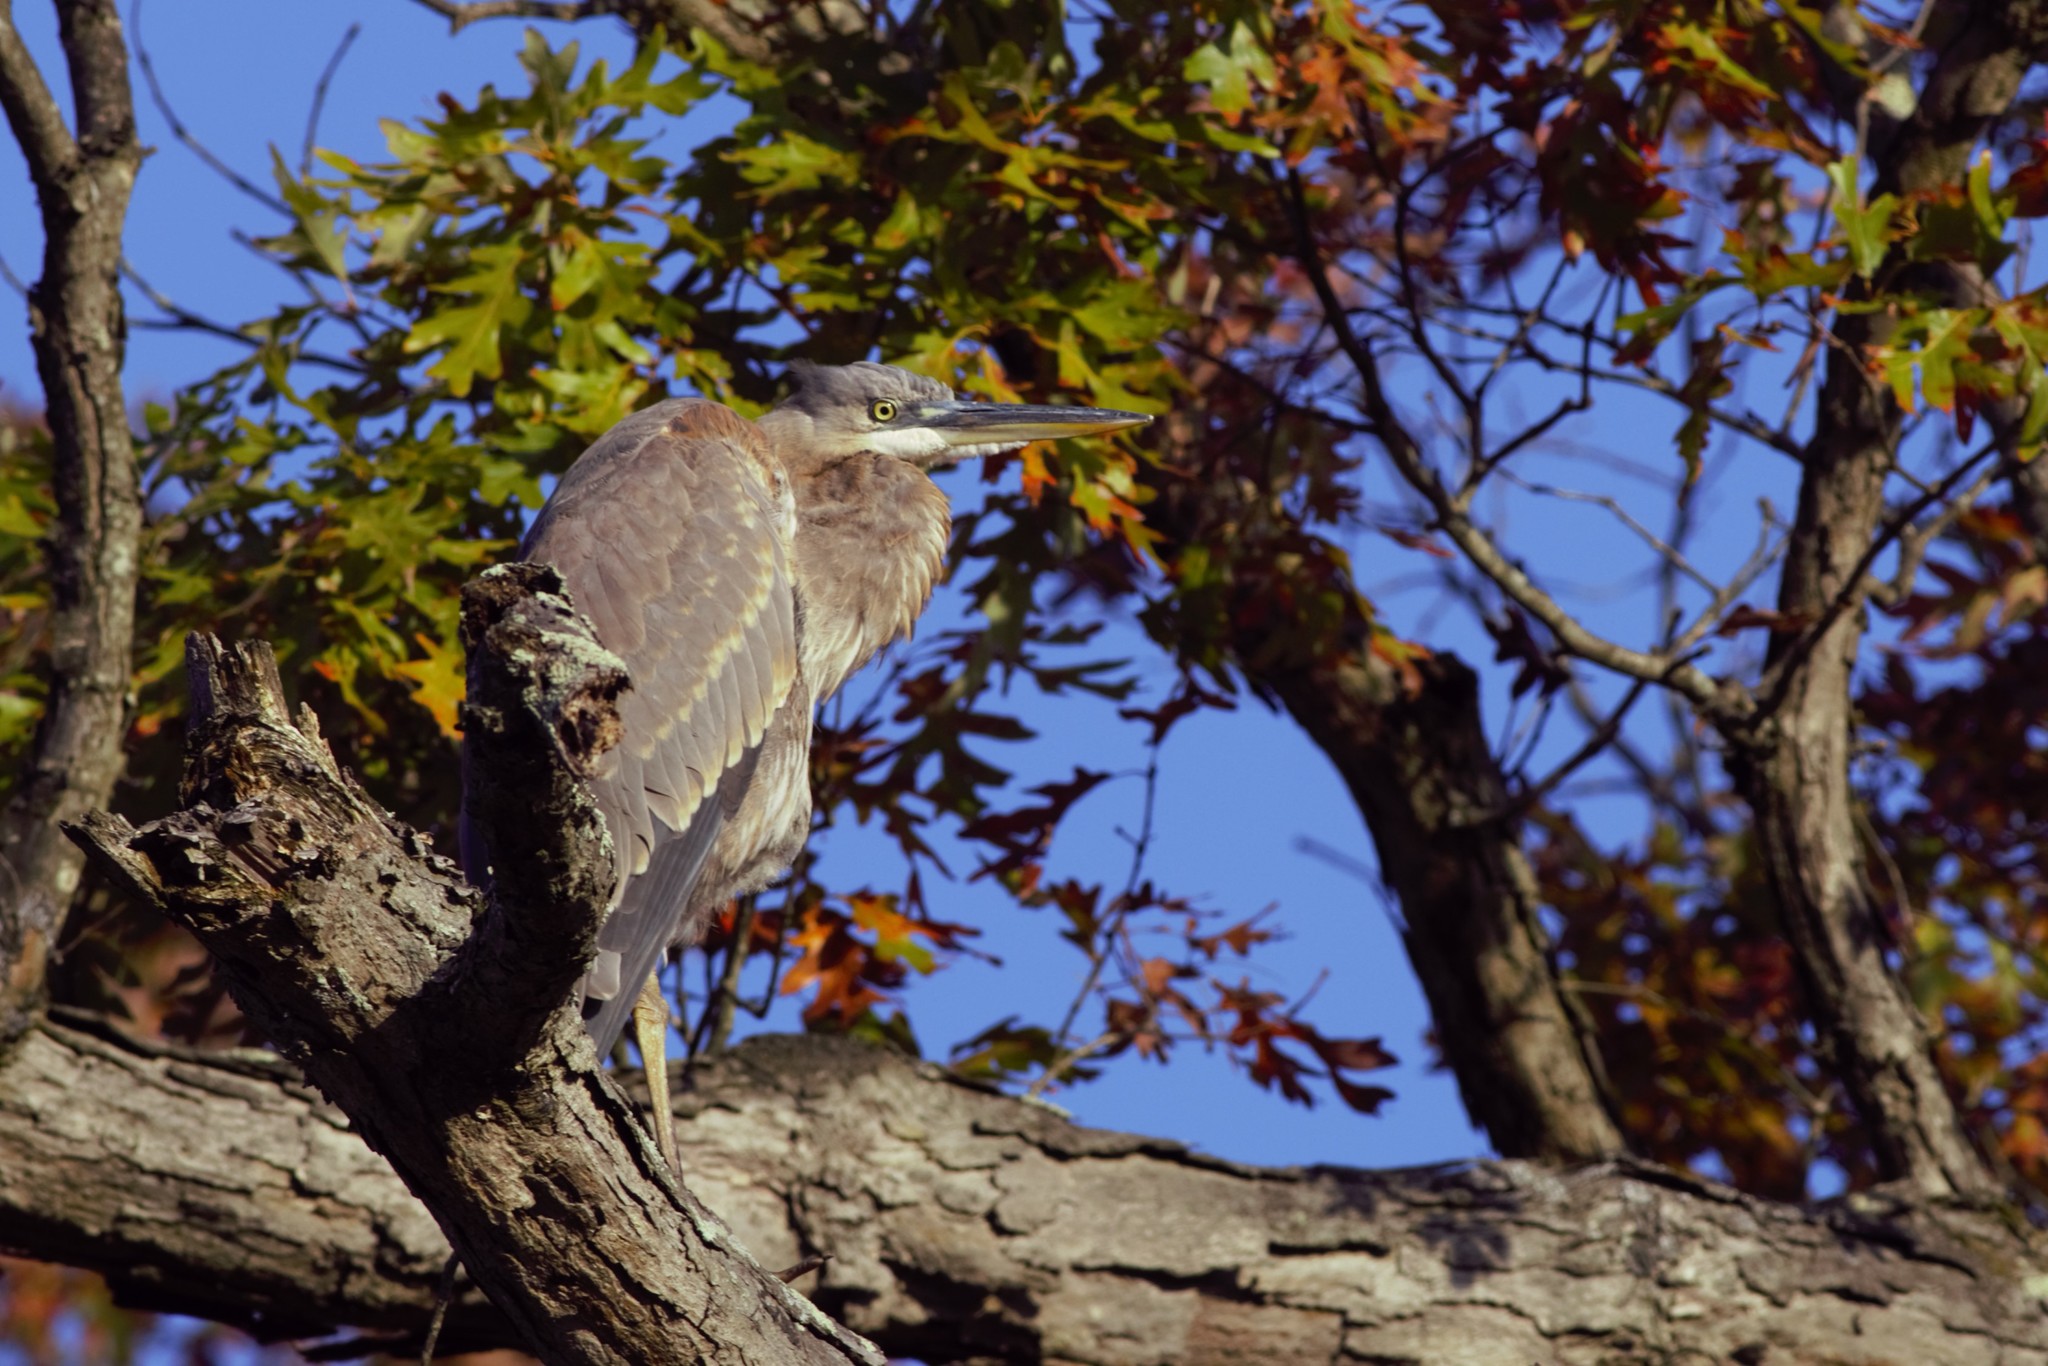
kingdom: Animalia
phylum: Chordata
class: Aves
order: Pelecaniformes
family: Ardeidae
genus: Ardea
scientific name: Ardea herodias
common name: Great blue heron
